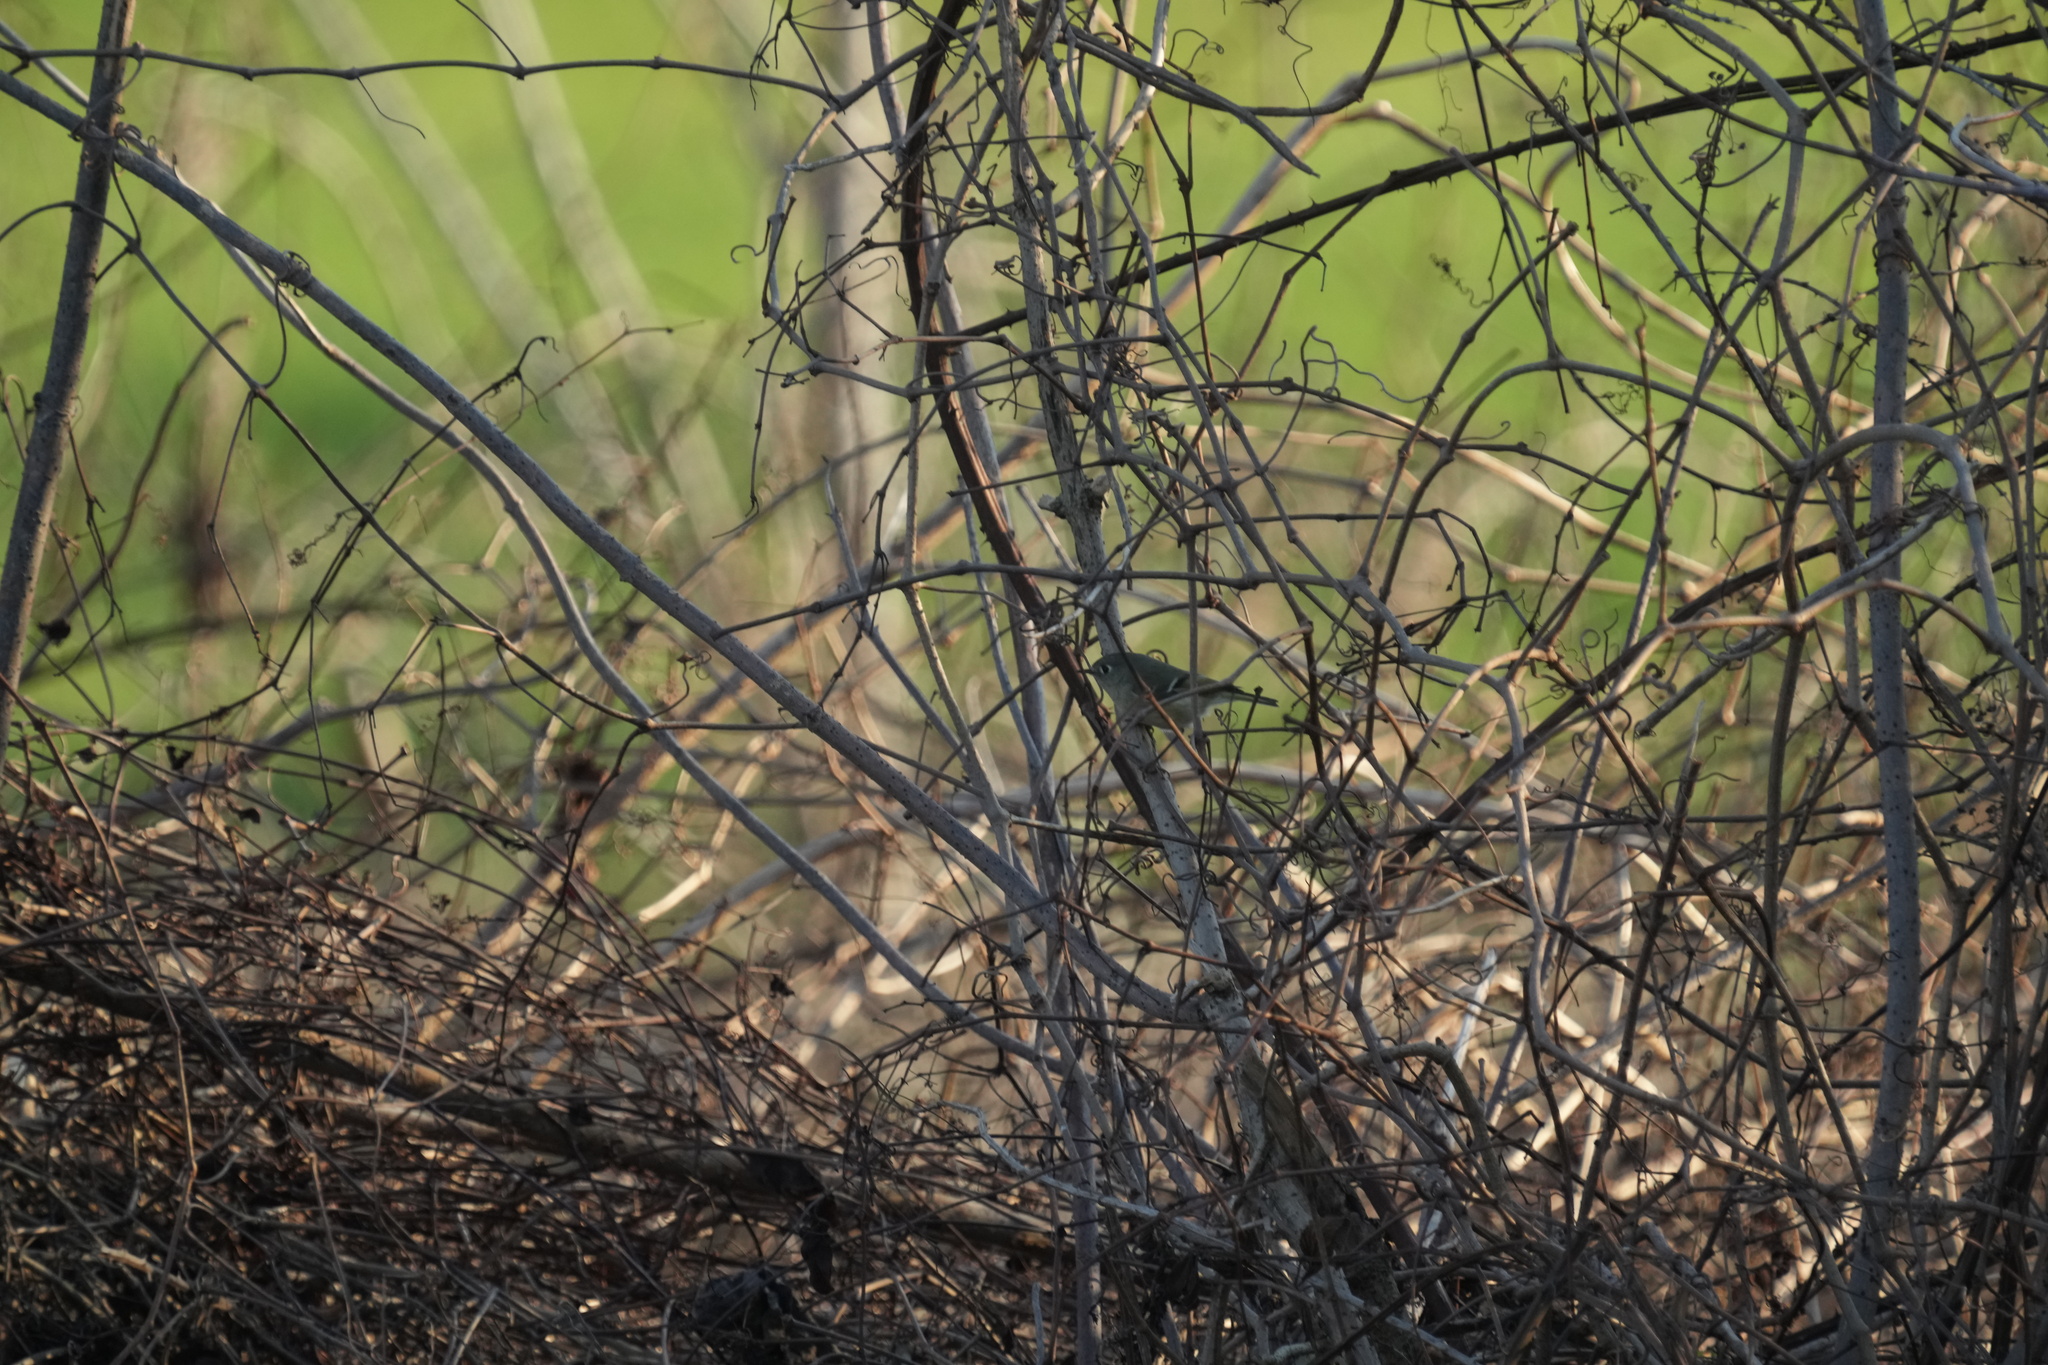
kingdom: Animalia
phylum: Chordata
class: Aves
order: Passeriformes
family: Regulidae
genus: Regulus
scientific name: Regulus calendula
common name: Ruby-crowned kinglet
